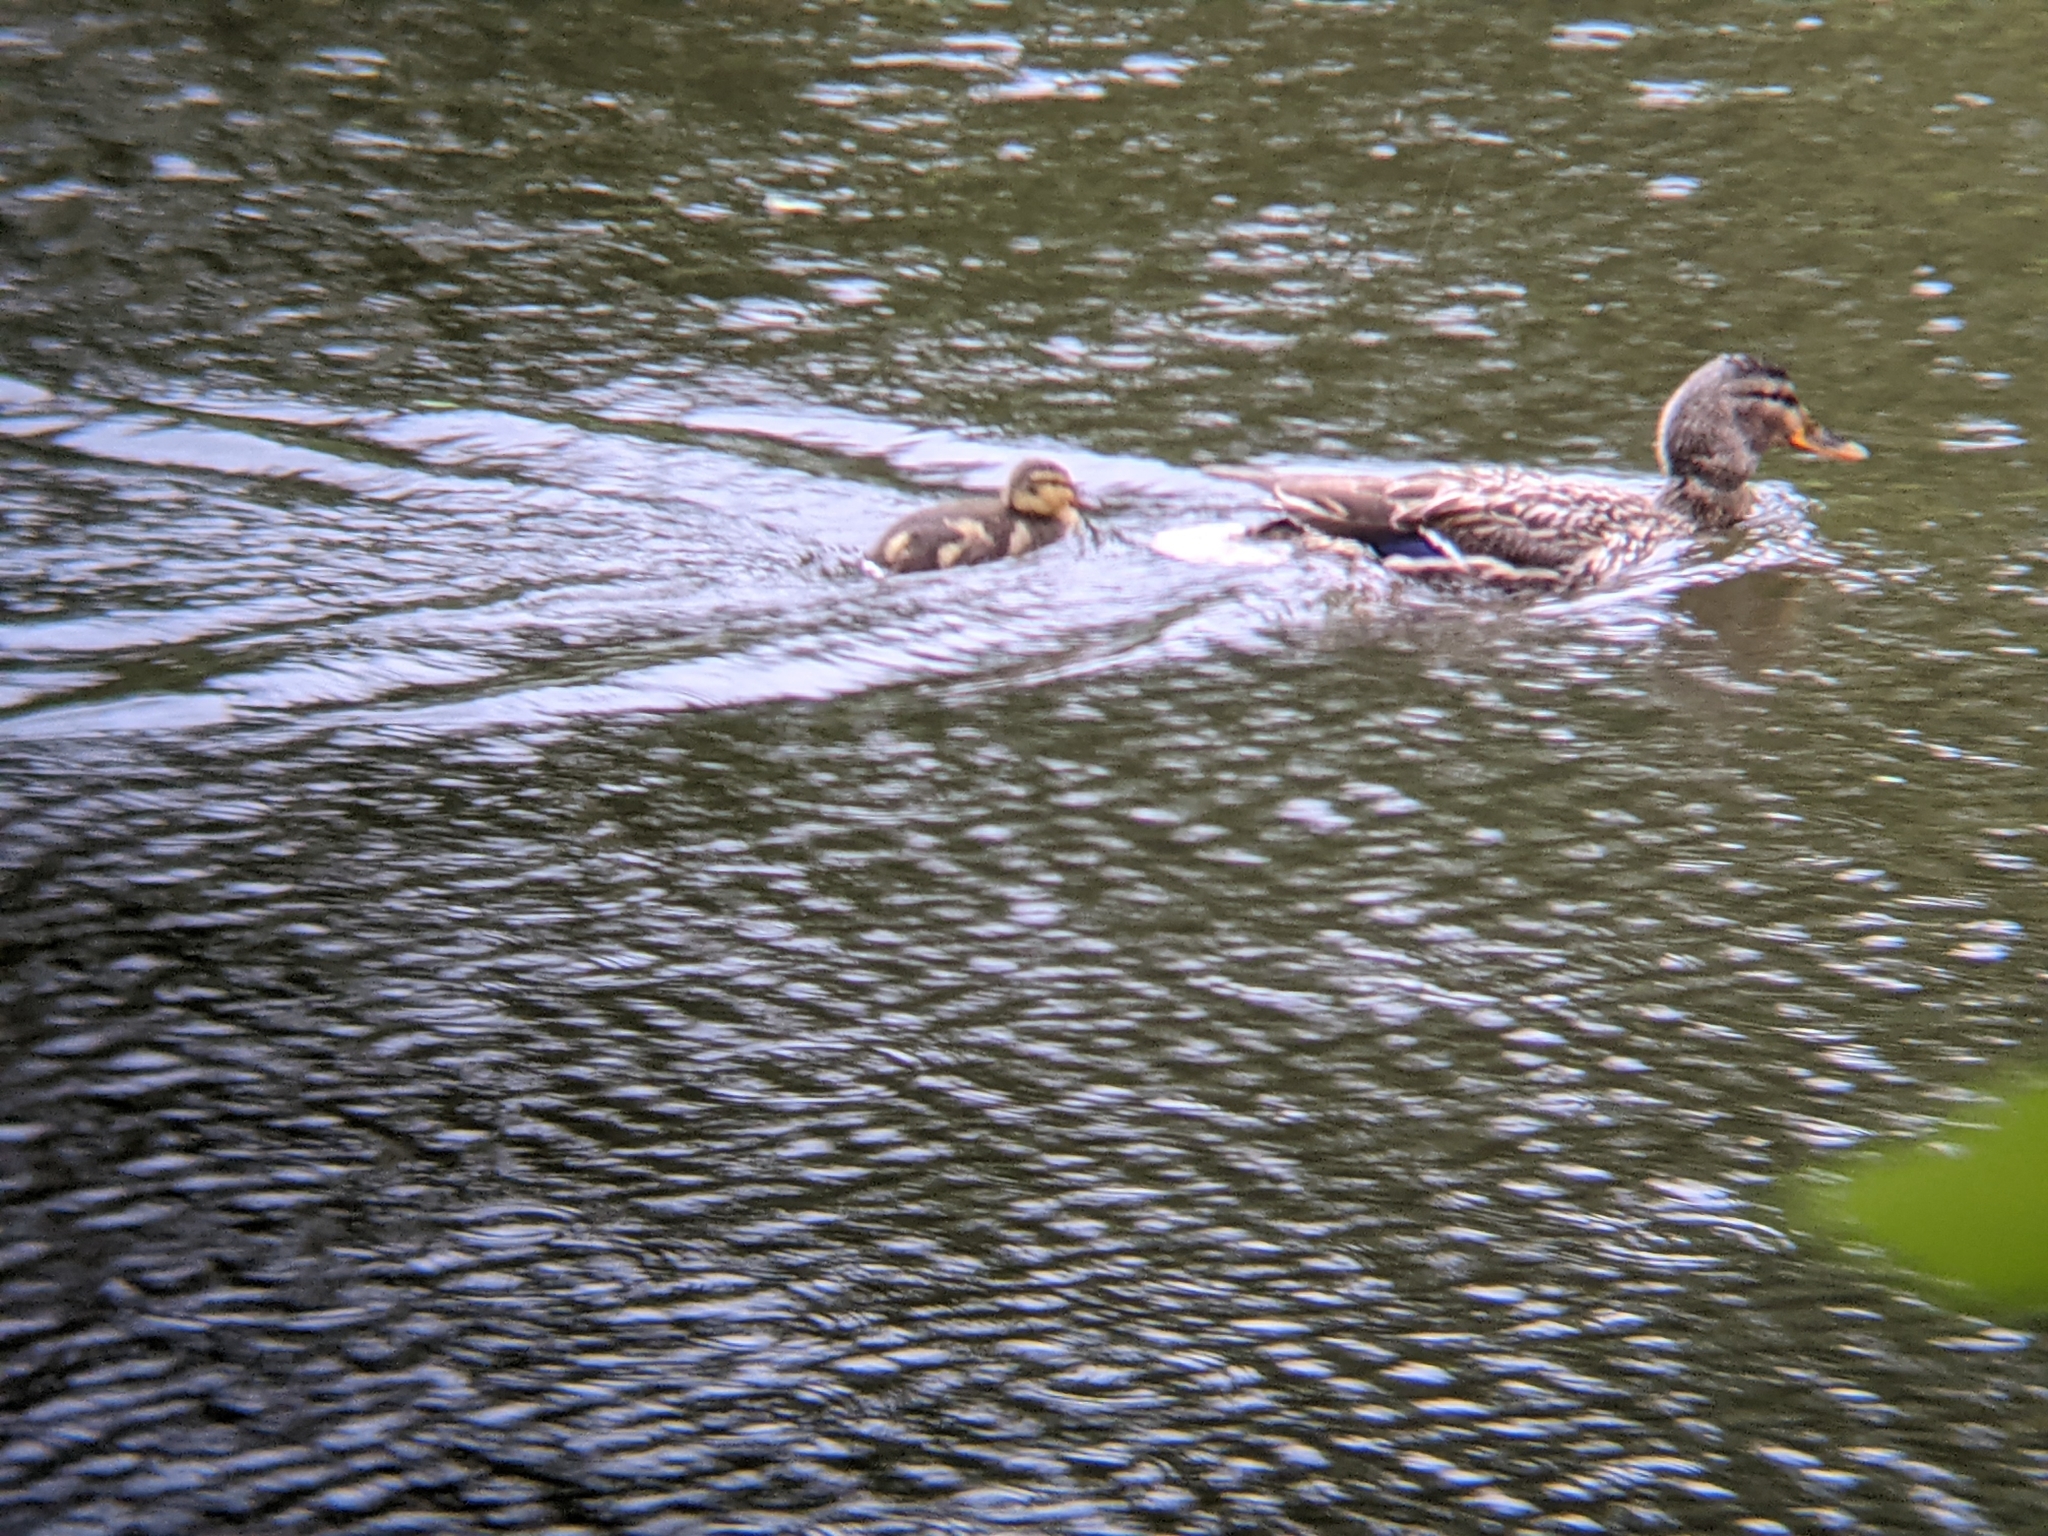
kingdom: Animalia
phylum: Chordata
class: Aves
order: Anseriformes
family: Anatidae
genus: Anas
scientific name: Anas platyrhynchos
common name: Mallard
